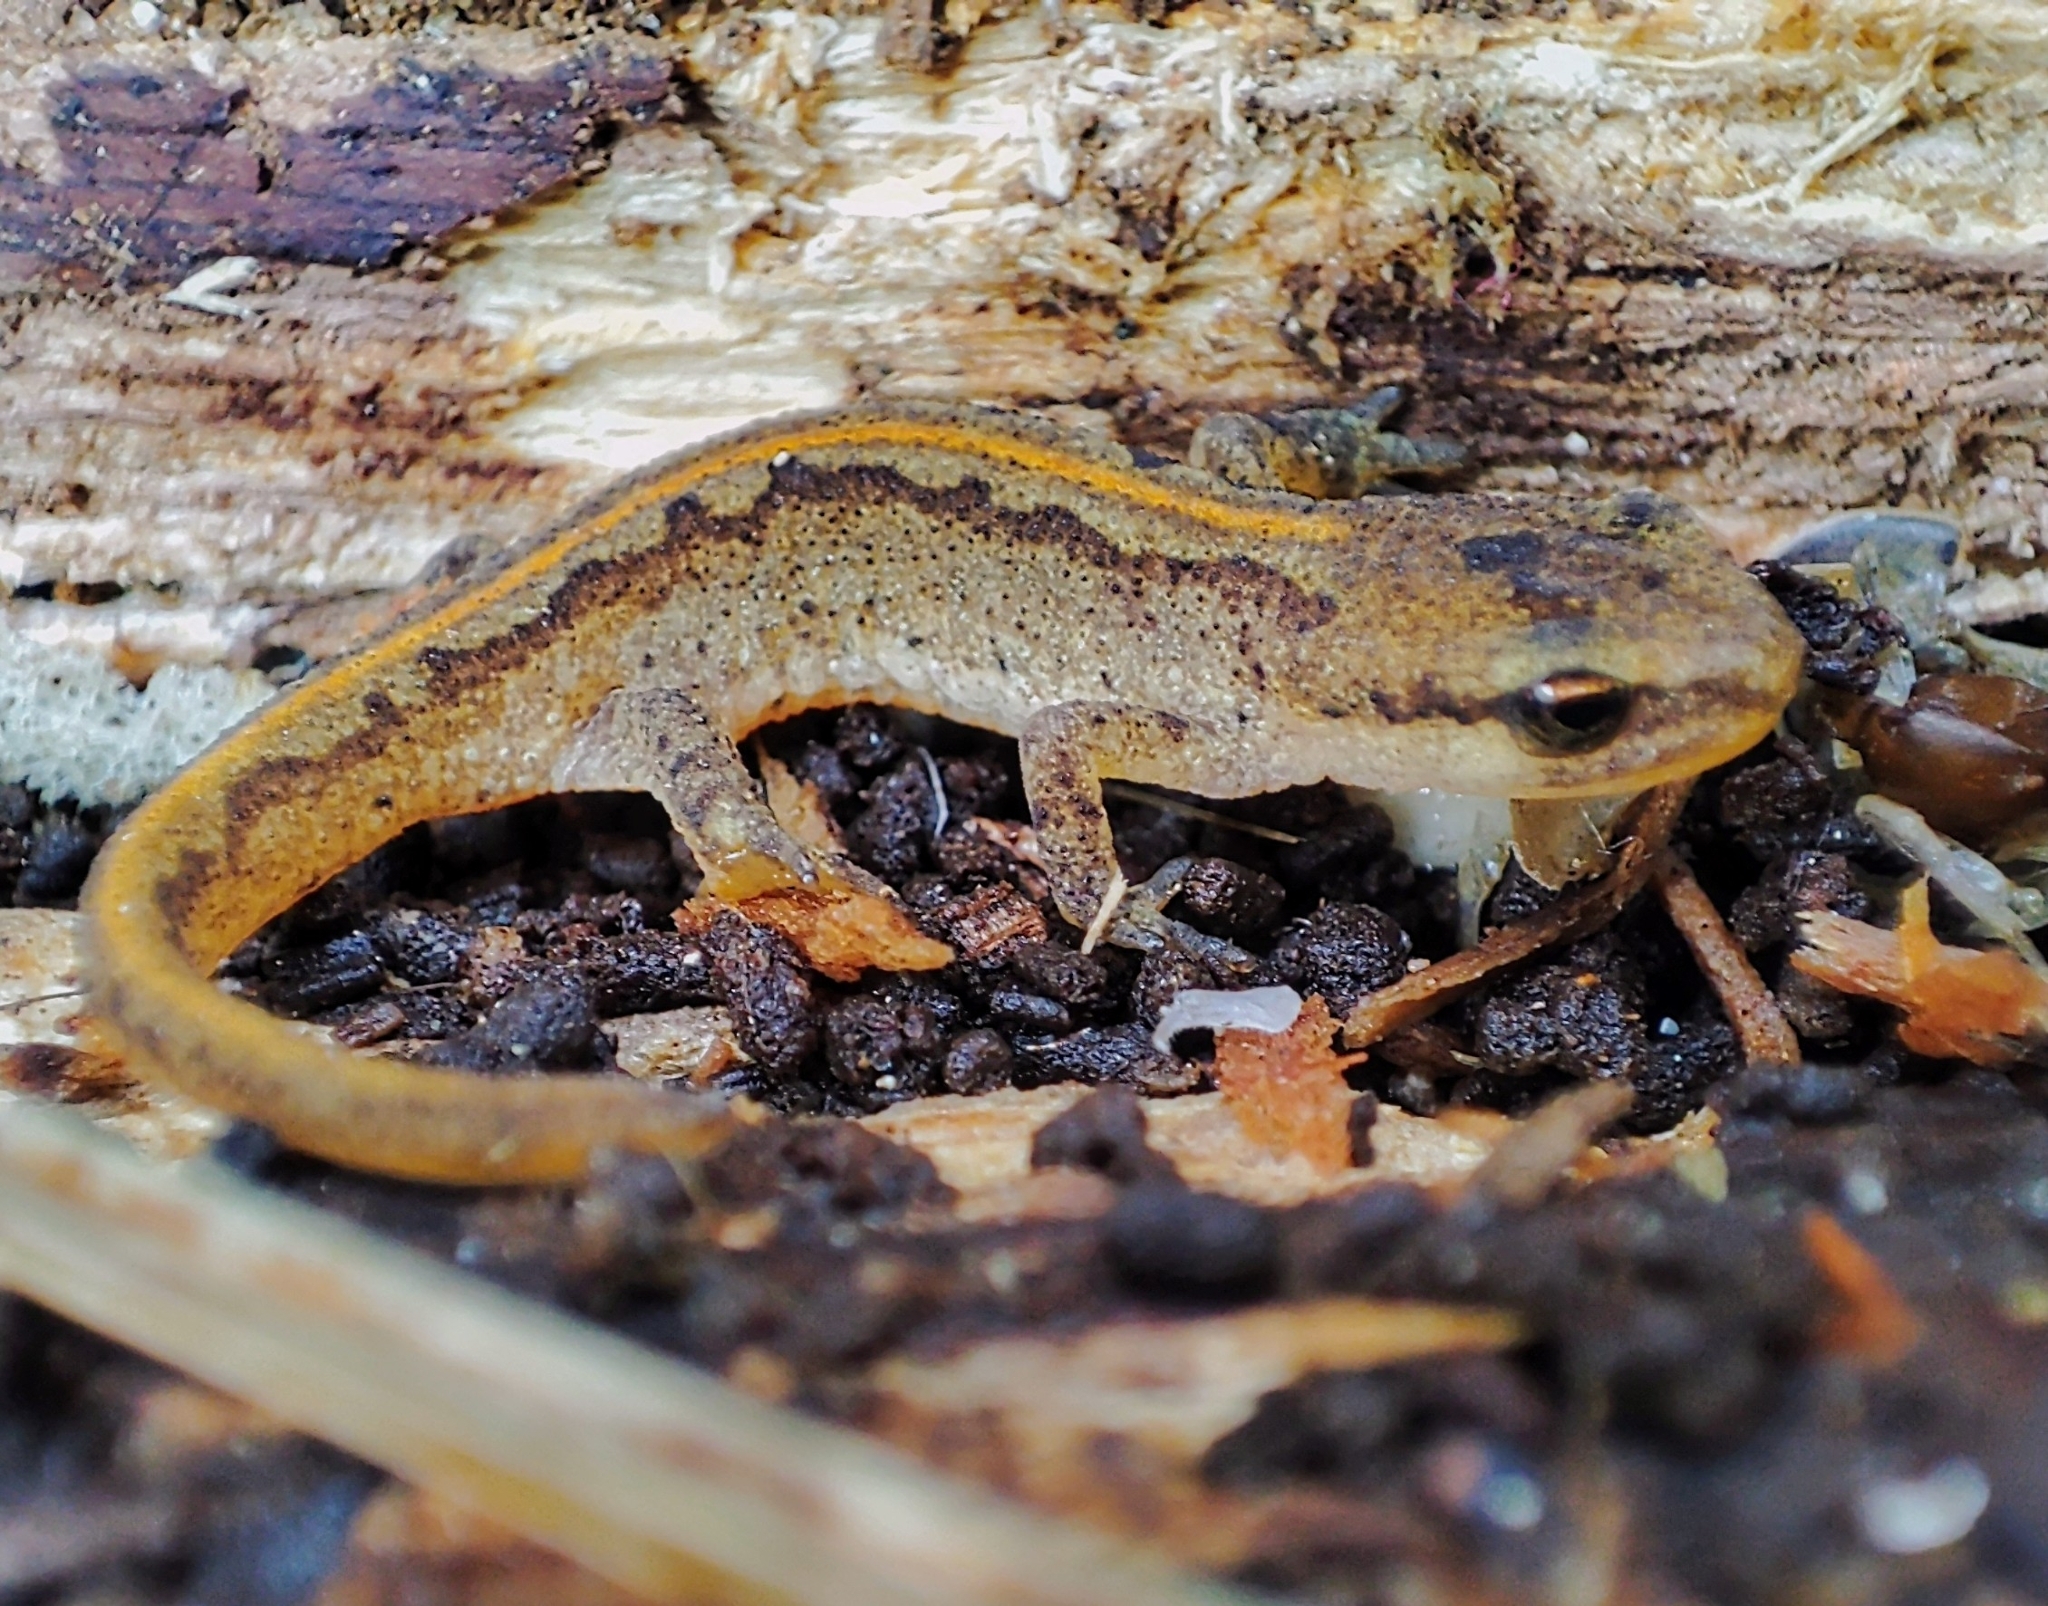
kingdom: Animalia
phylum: Chordata
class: Amphibia
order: Caudata
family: Salamandridae
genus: Lissotriton
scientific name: Lissotriton helveticus
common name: Palmate newt
